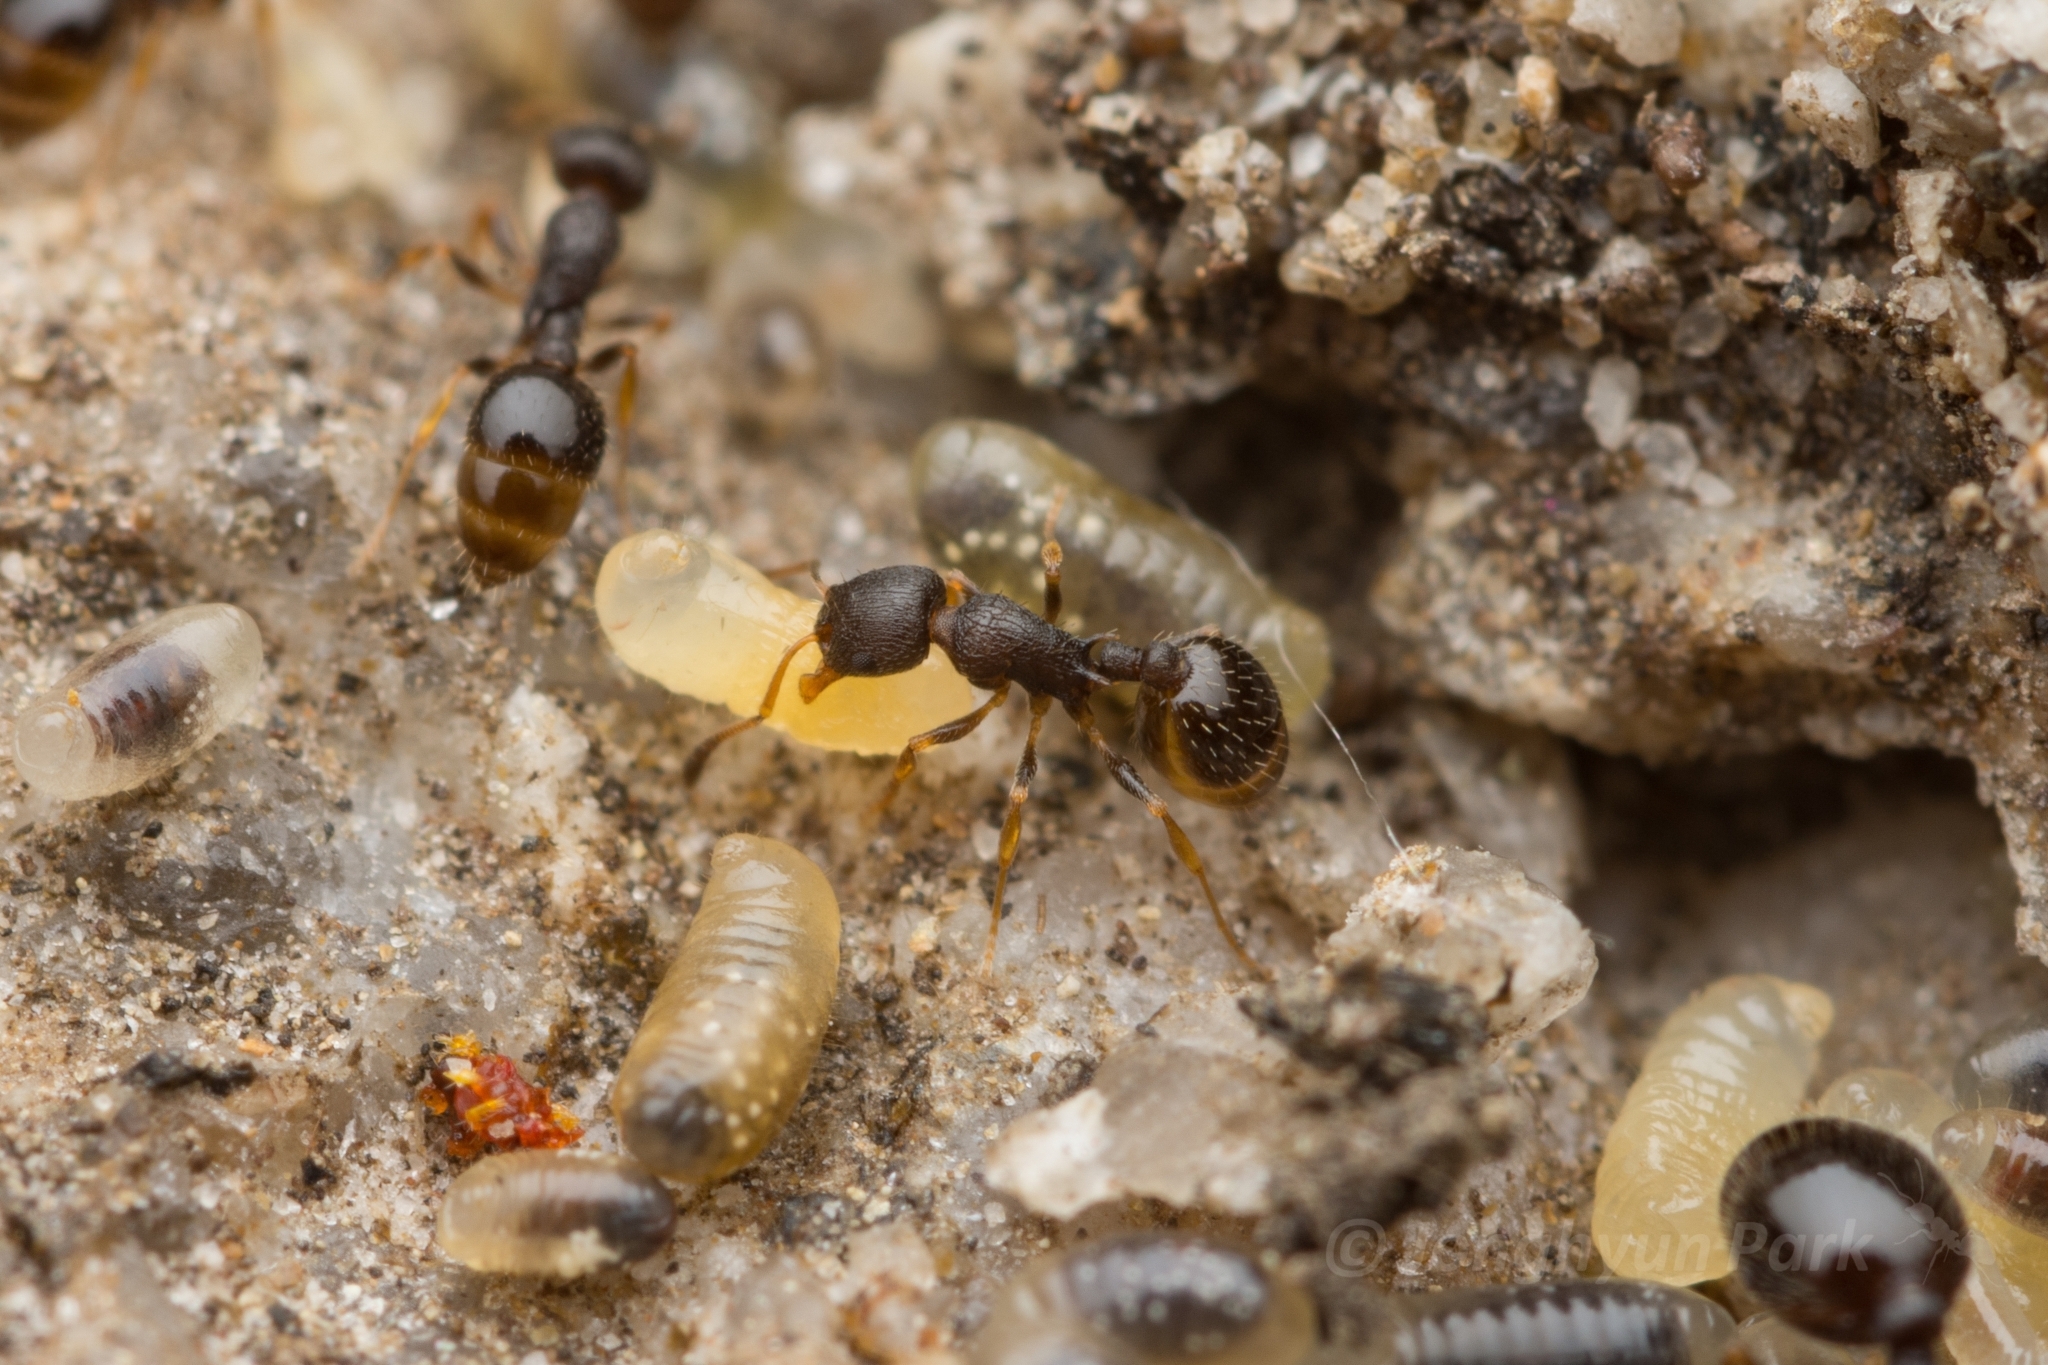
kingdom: Animalia
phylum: Arthropoda
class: Insecta
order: Hymenoptera
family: Formicidae
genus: Temnothorax
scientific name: Temnothorax
